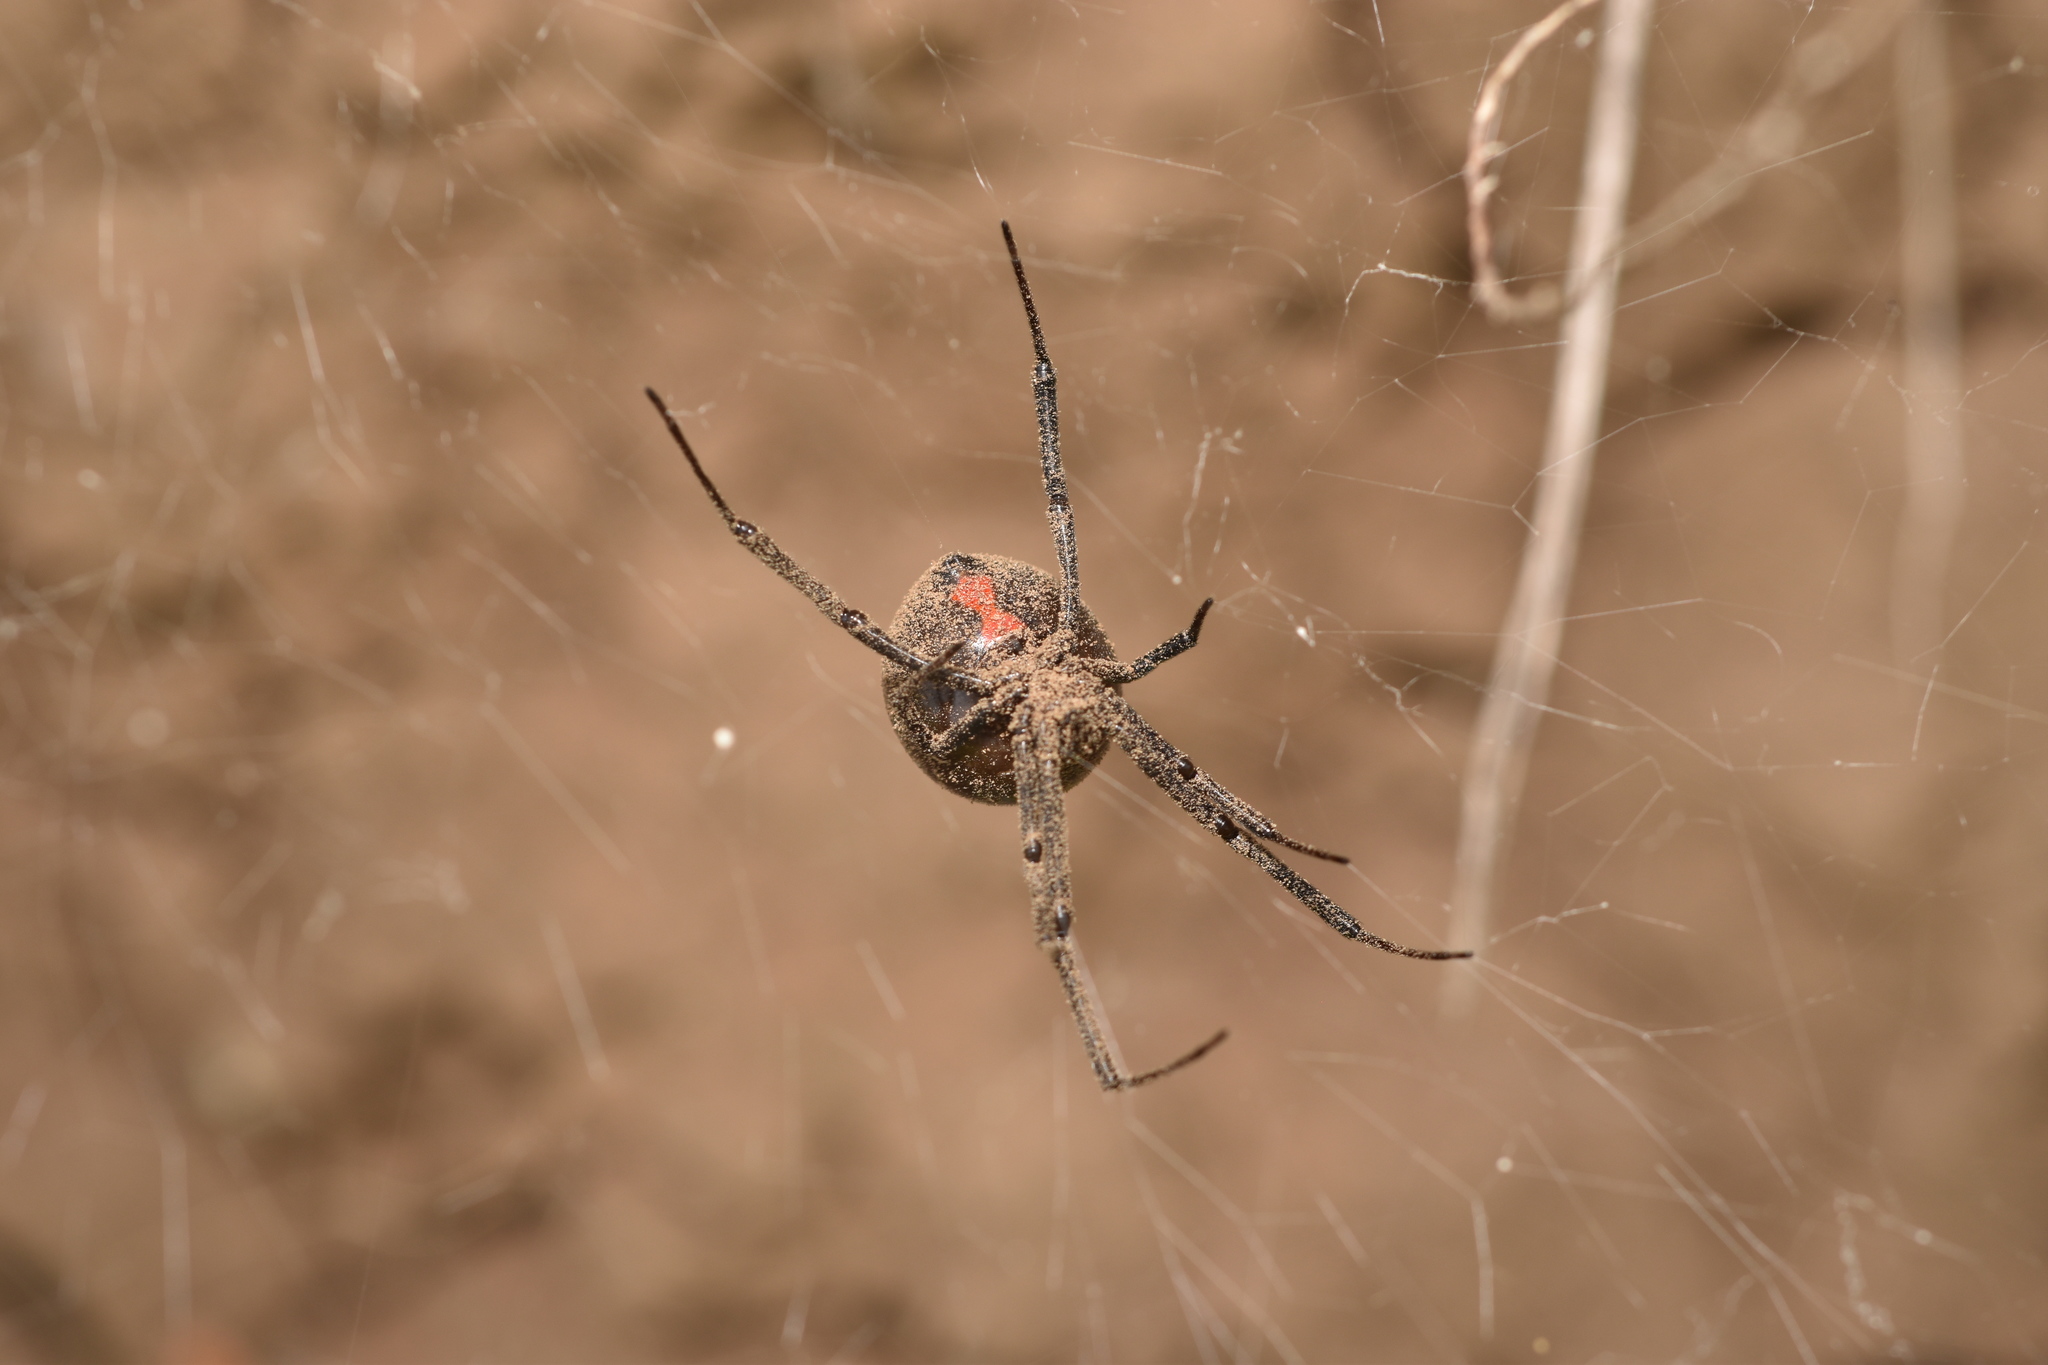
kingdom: Animalia
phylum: Arthropoda
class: Arachnida
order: Araneae
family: Theridiidae
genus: Latrodectus
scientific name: Latrodectus hesperus
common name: Western black widow
